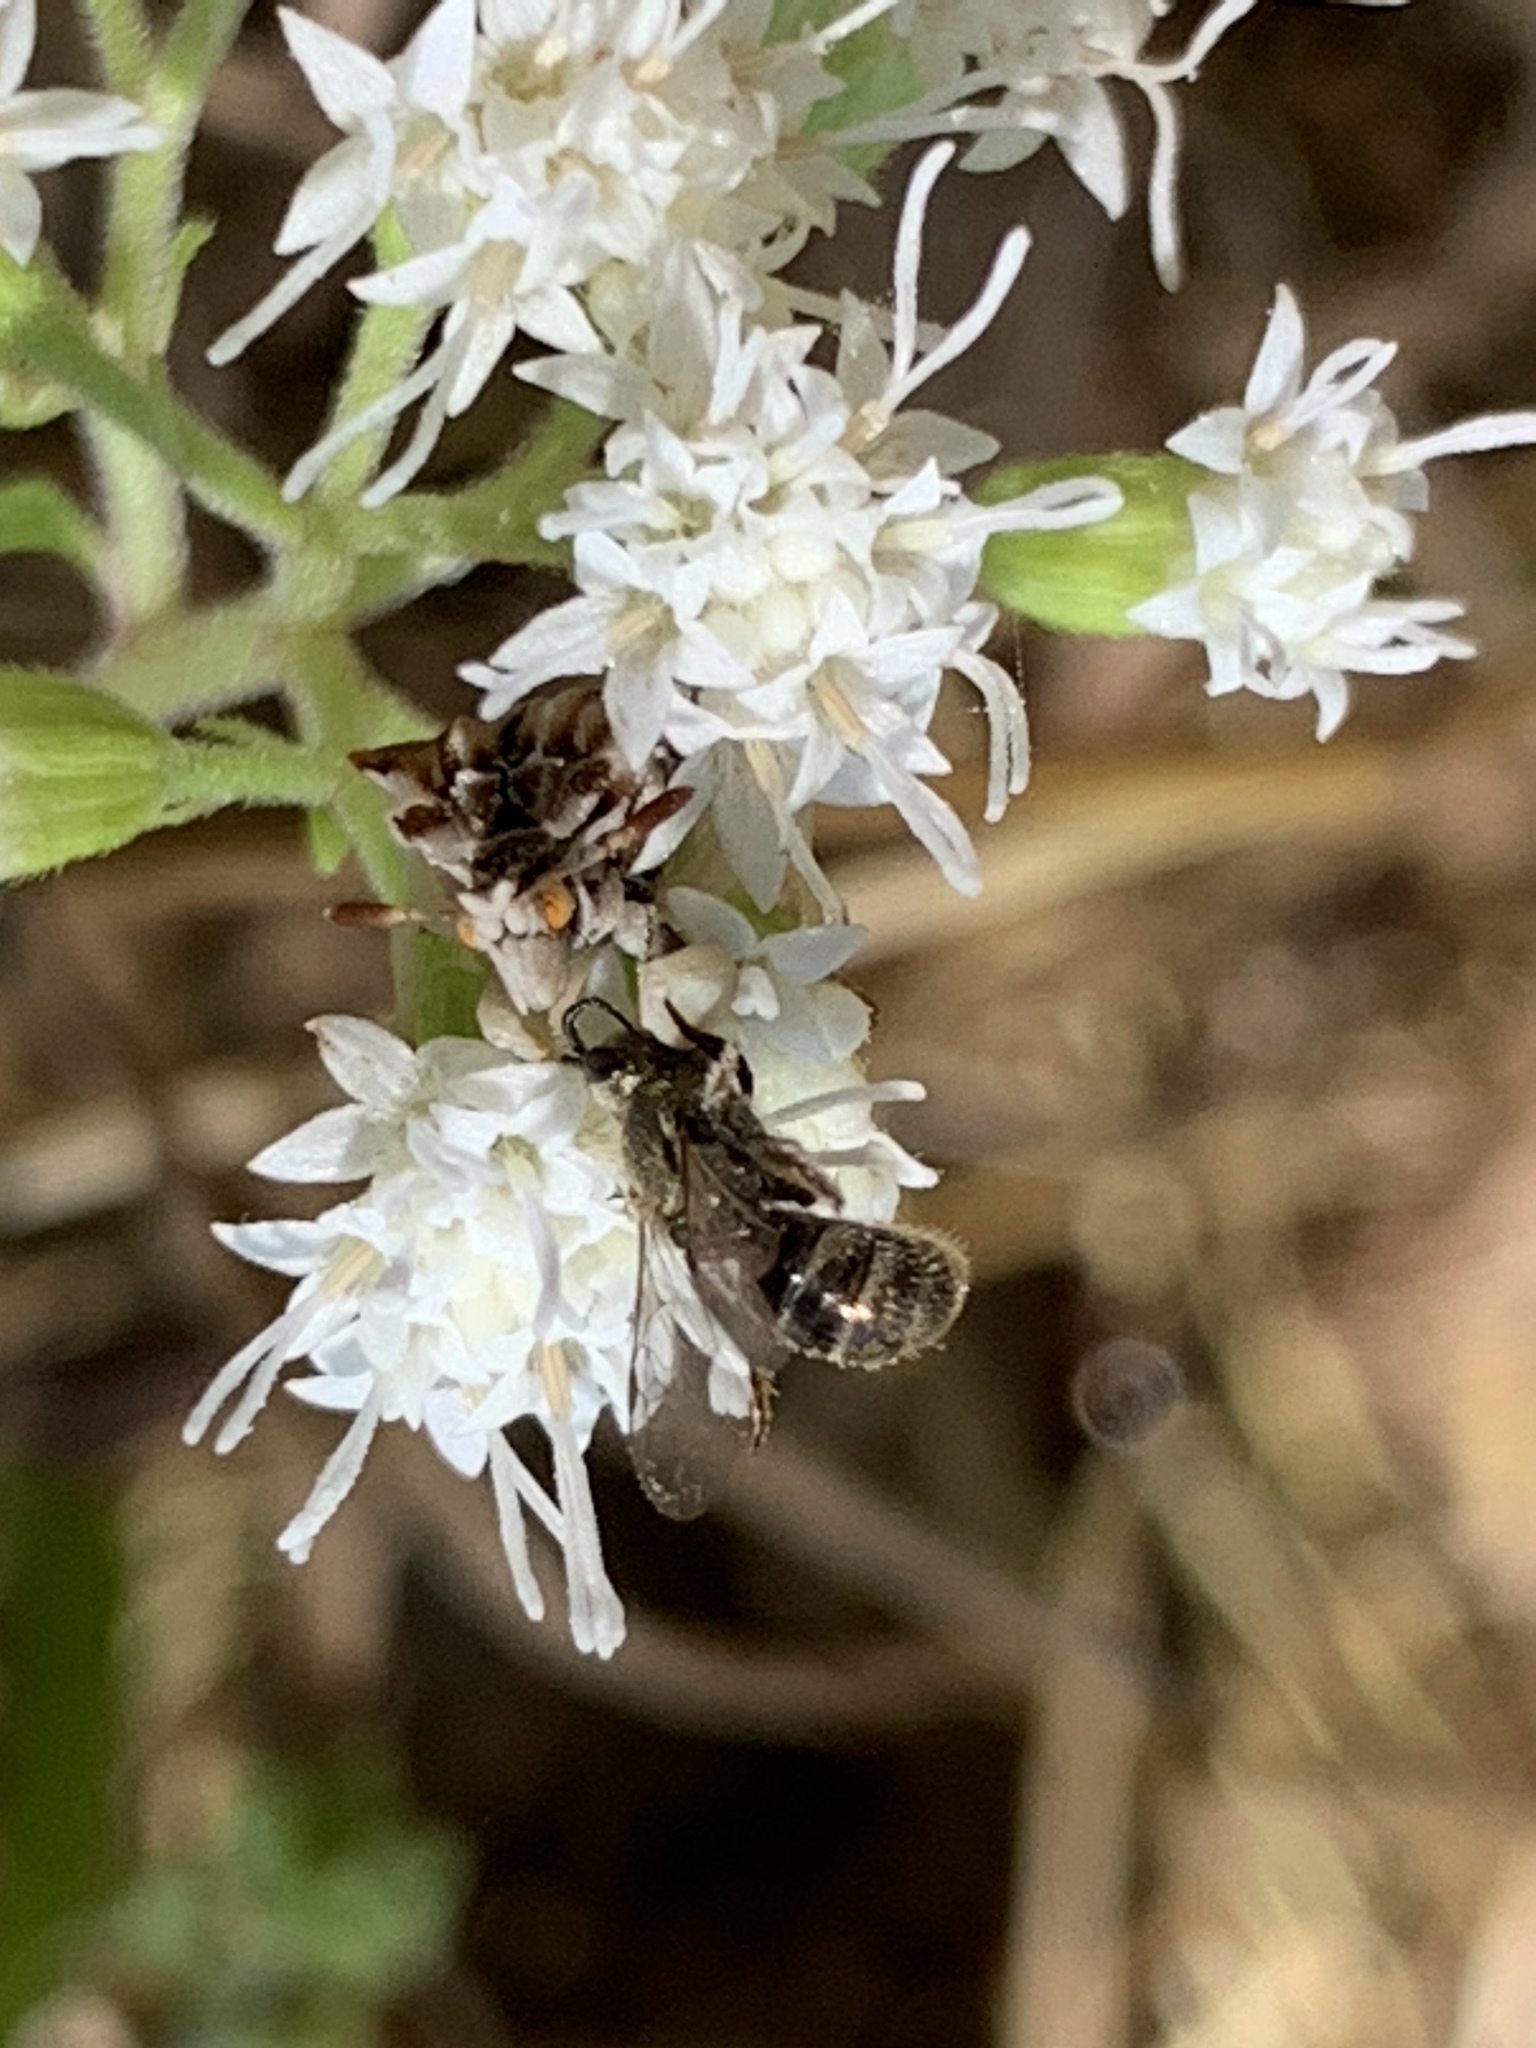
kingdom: Animalia
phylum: Arthropoda
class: Insecta
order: Hymenoptera
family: Halictidae
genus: Dialictus
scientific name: Dialictus
